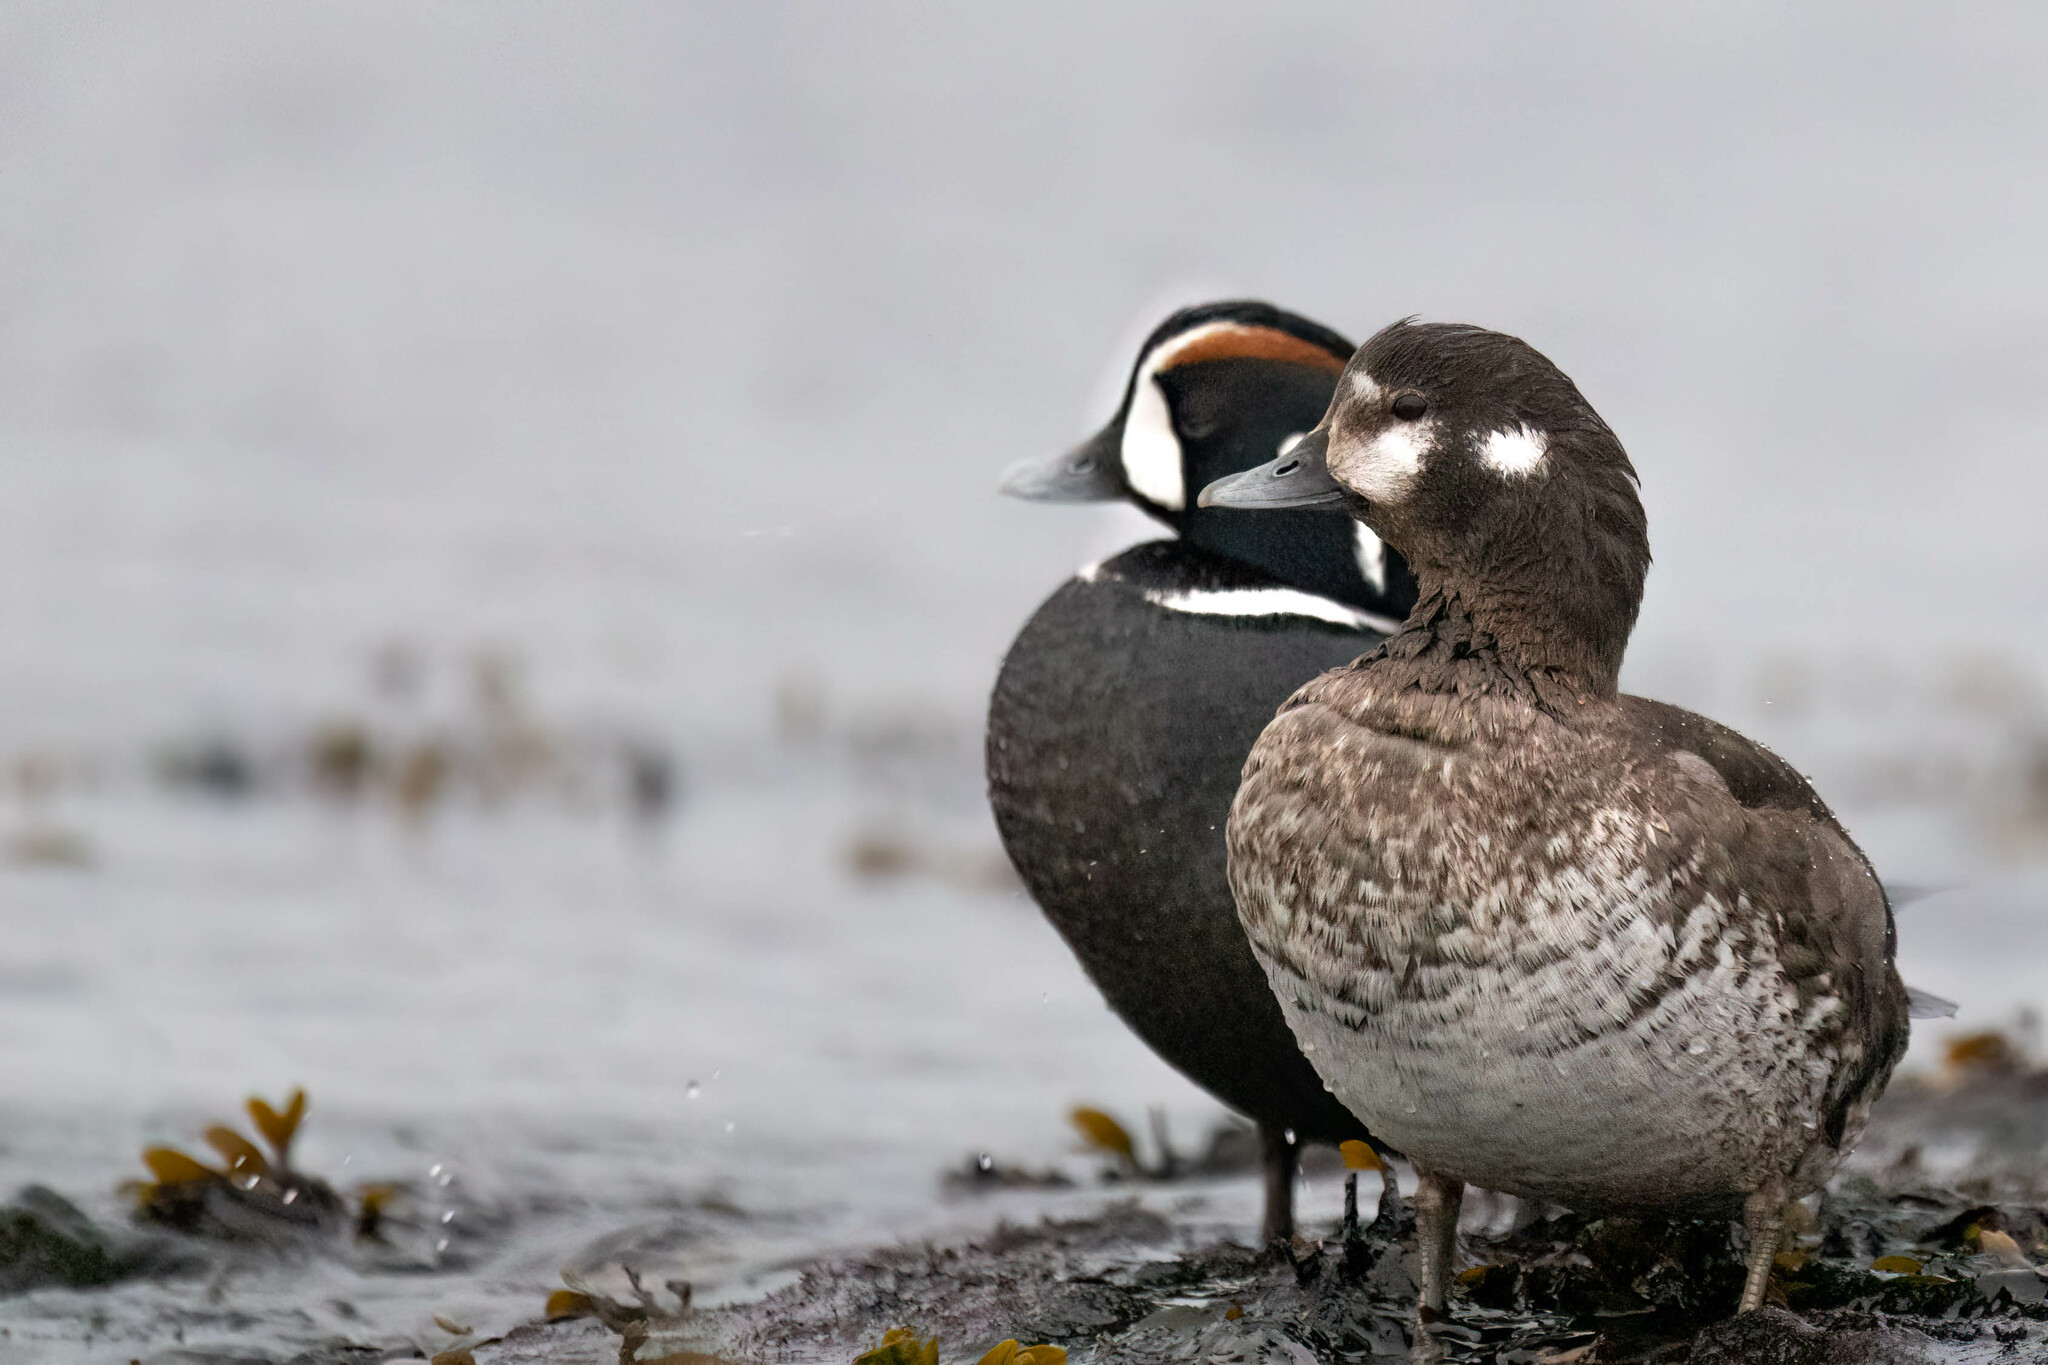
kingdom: Animalia
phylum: Chordata
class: Aves
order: Anseriformes
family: Anatidae
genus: Histrionicus
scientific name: Histrionicus histrionicus
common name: Harlequin duck
